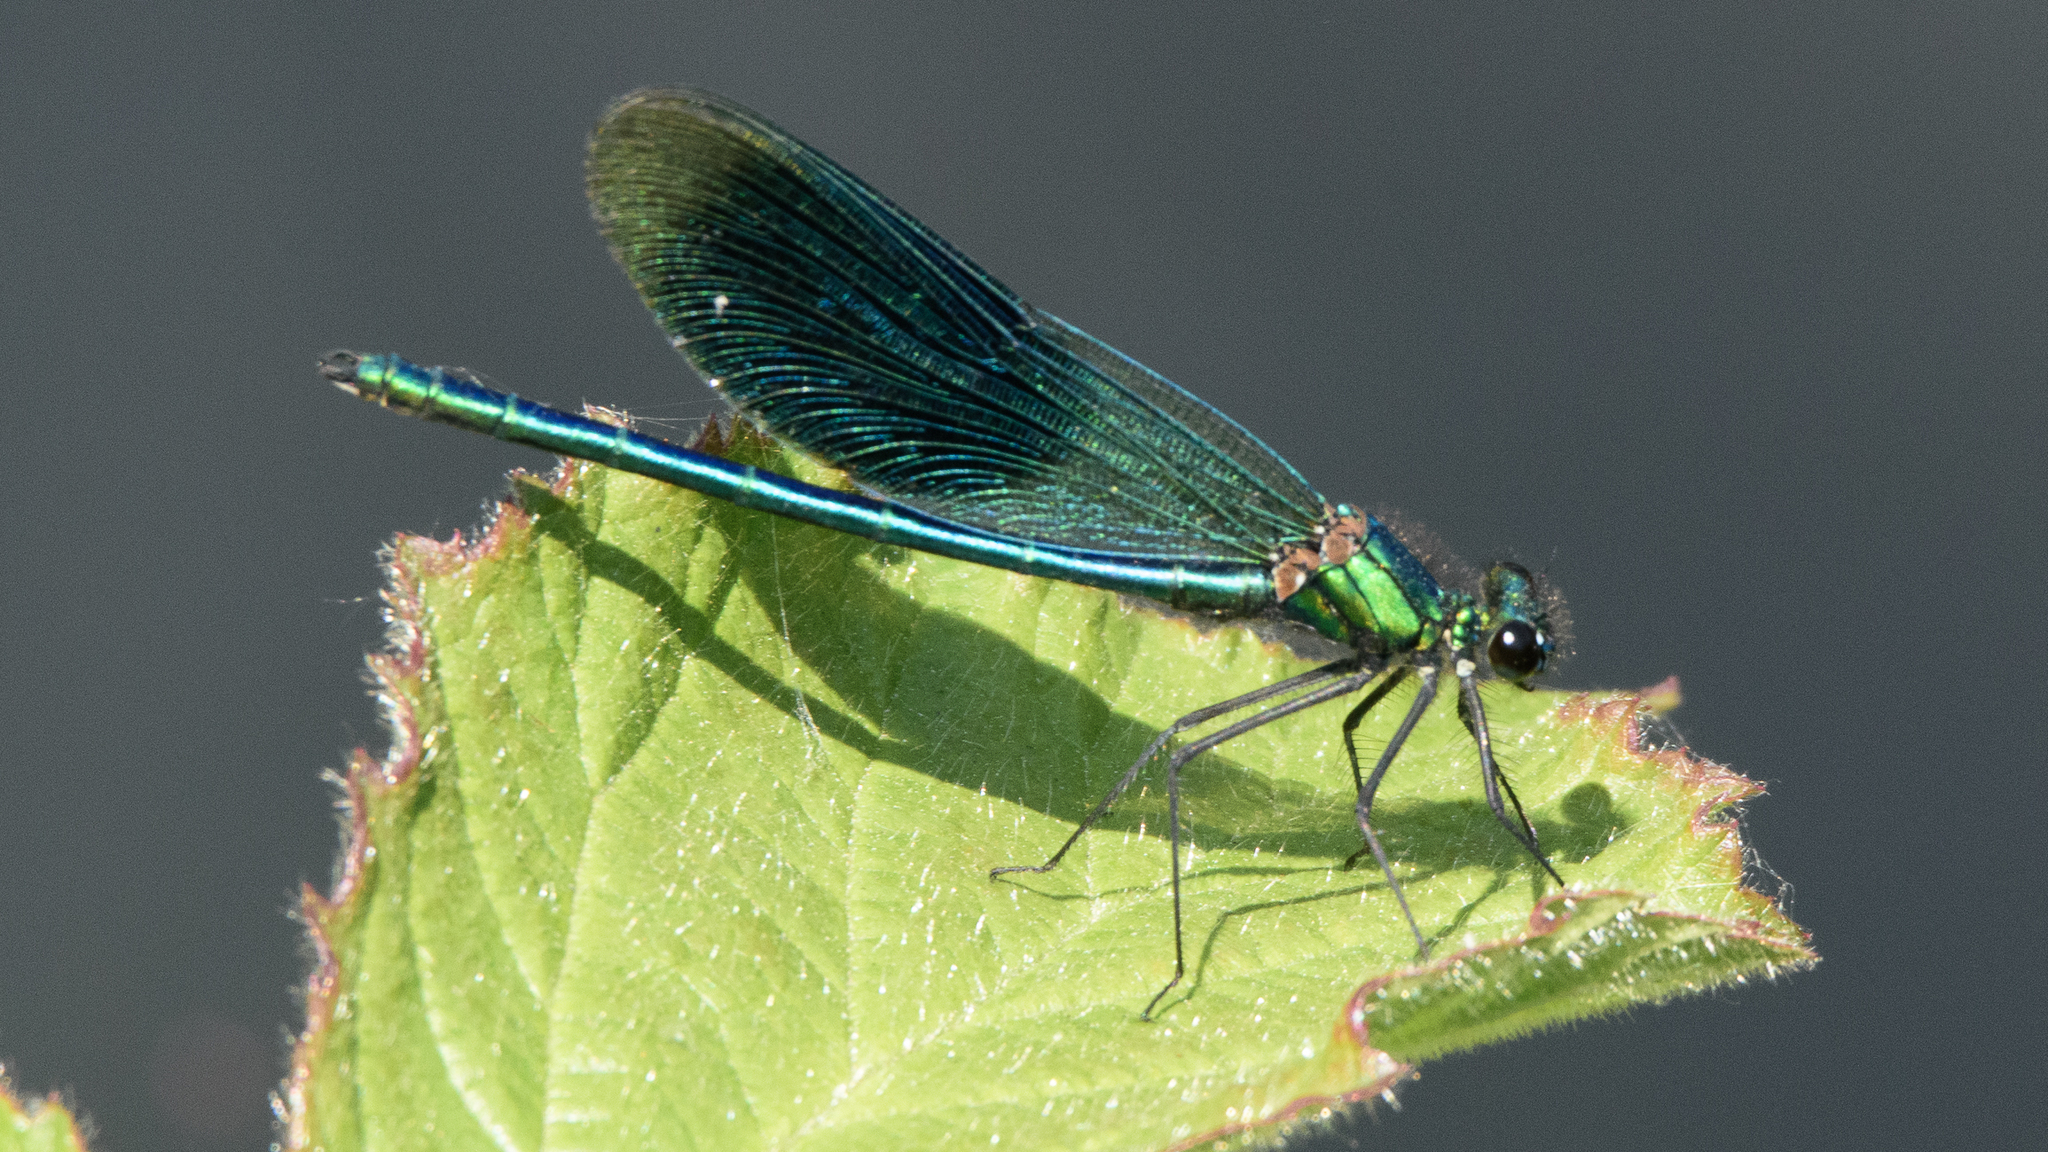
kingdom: Animalia
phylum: Arthropoda
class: Insecta
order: Odonata
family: Calopterygidae
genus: Calopteryx
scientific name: Calopteryx splendens
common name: Banded demoiselle
